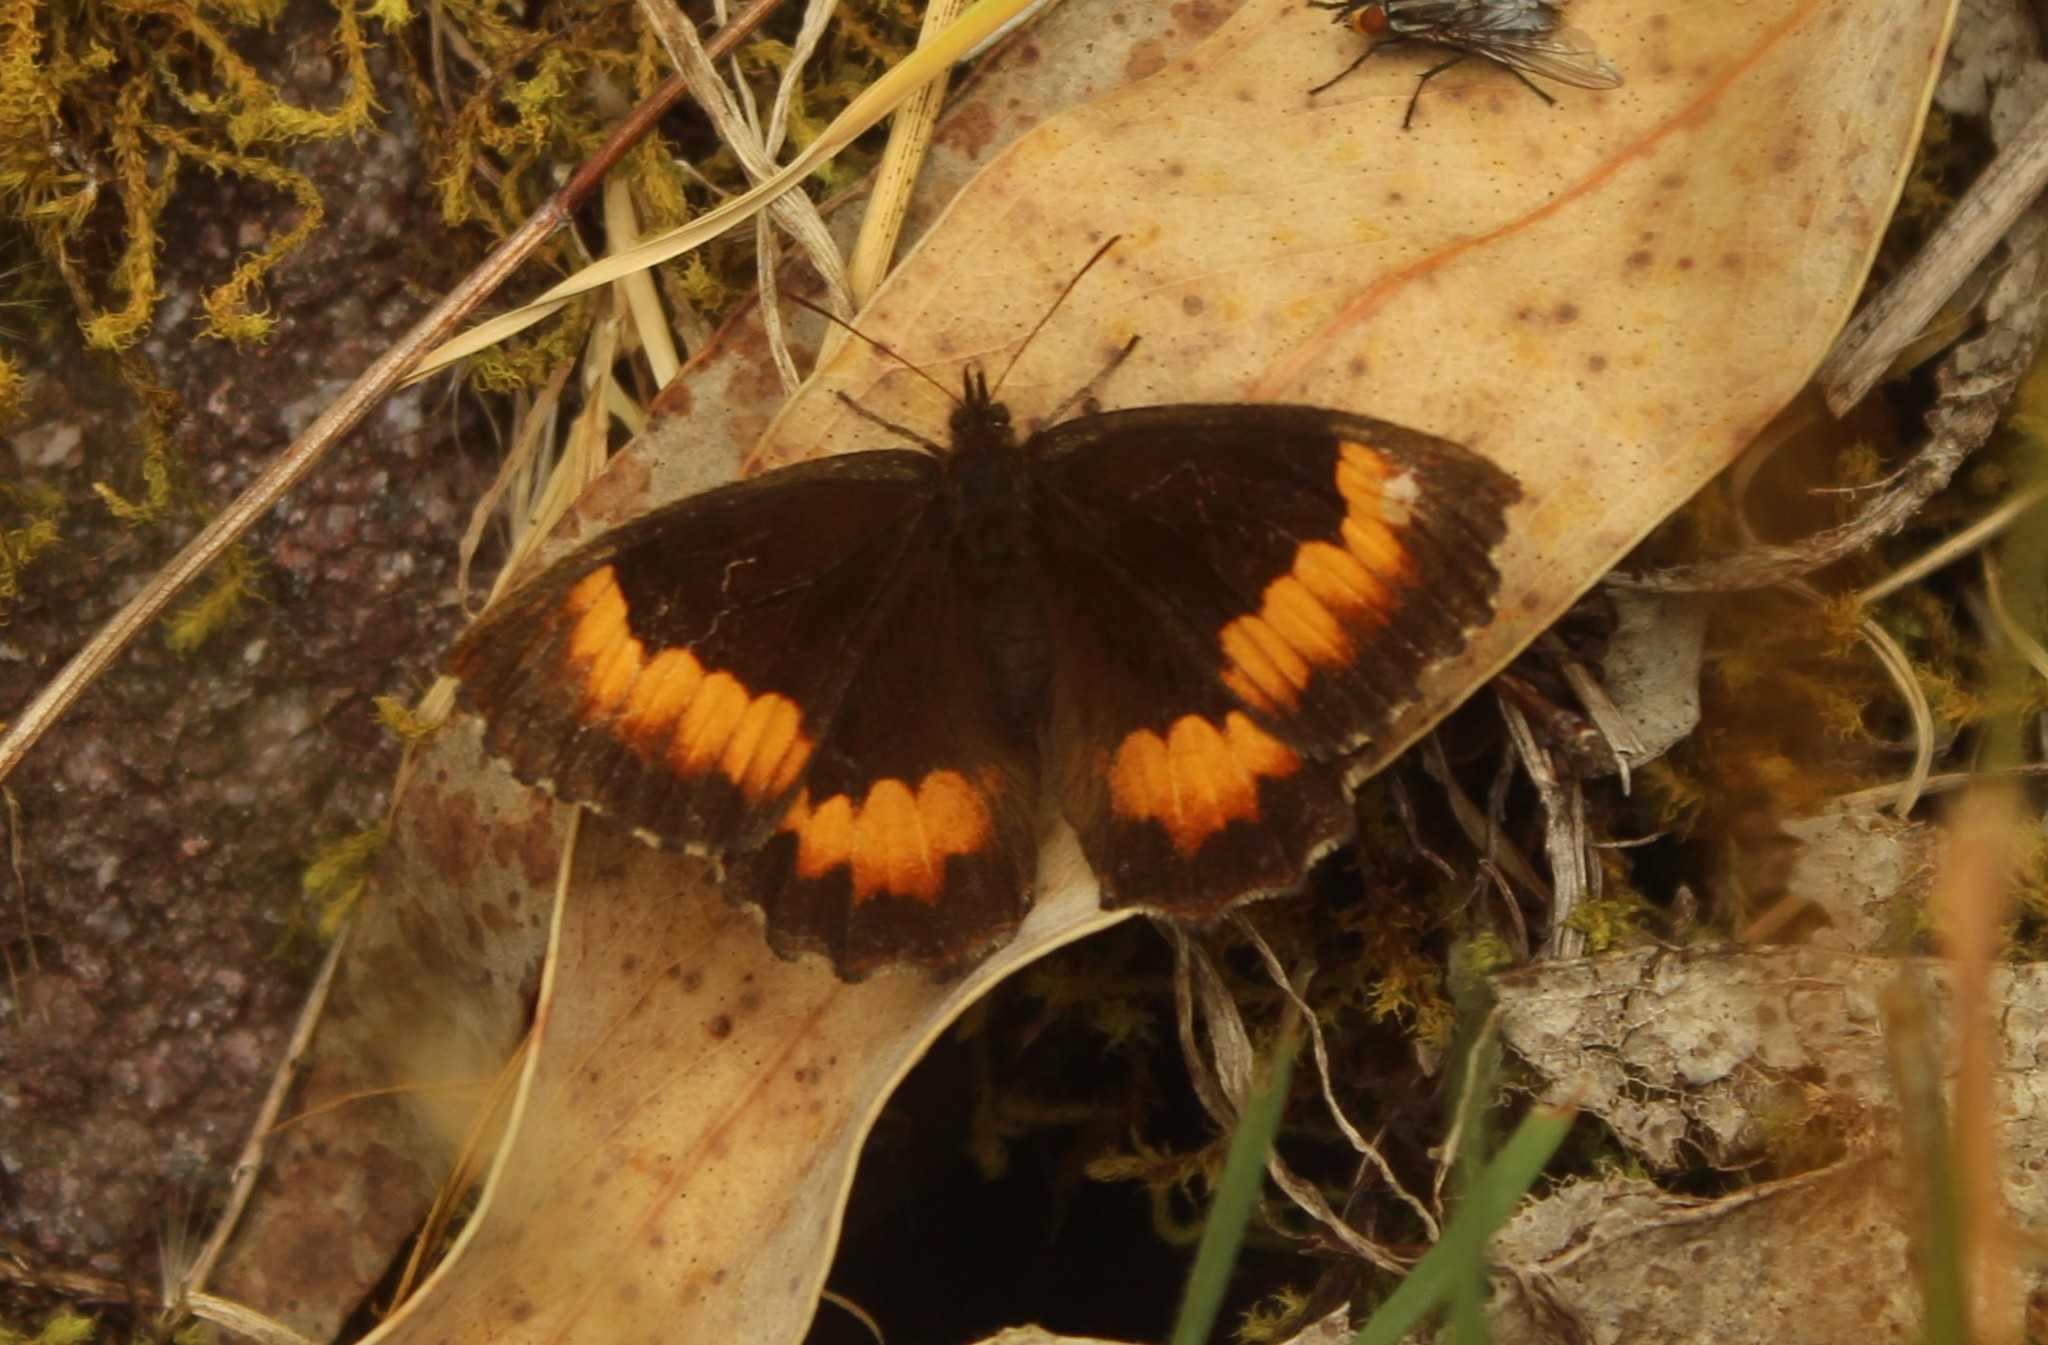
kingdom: Animalia
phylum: Arthropoda
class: Insecta
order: Lepidoptera
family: Nymphalidae
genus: Pedaliodes
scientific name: Pedaliodes phaea
